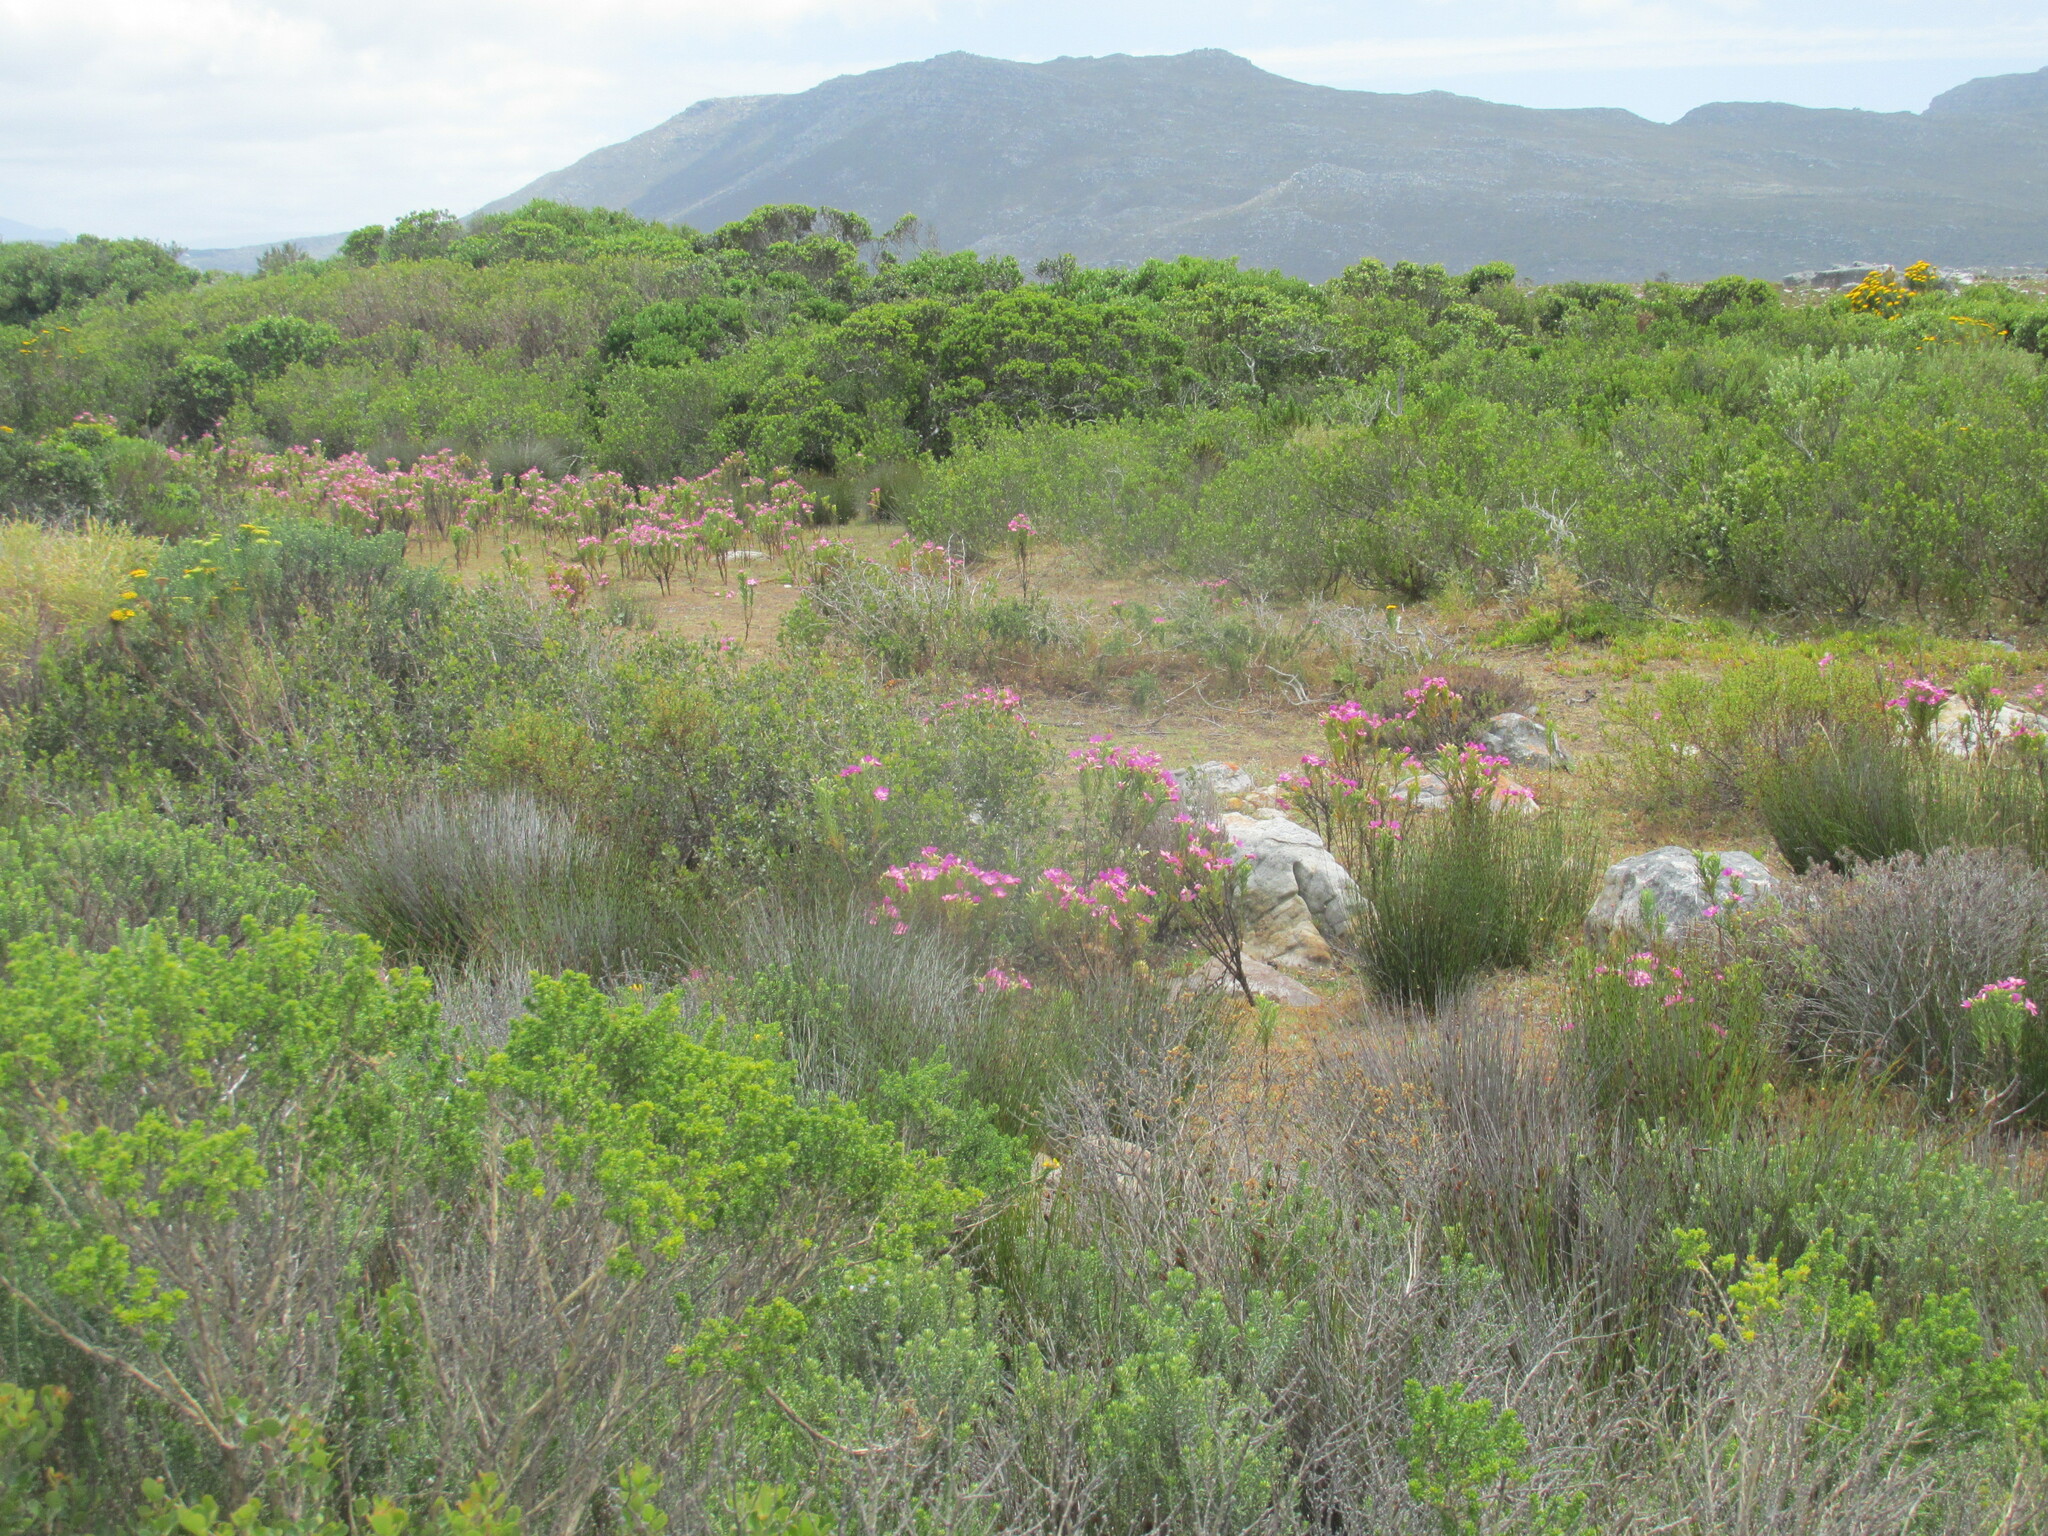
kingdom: Plantae
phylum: Tracheophyta
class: Magnoliopsida
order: Gentianales
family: Gentianaceae
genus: Orphium
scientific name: Orphium frutescens
